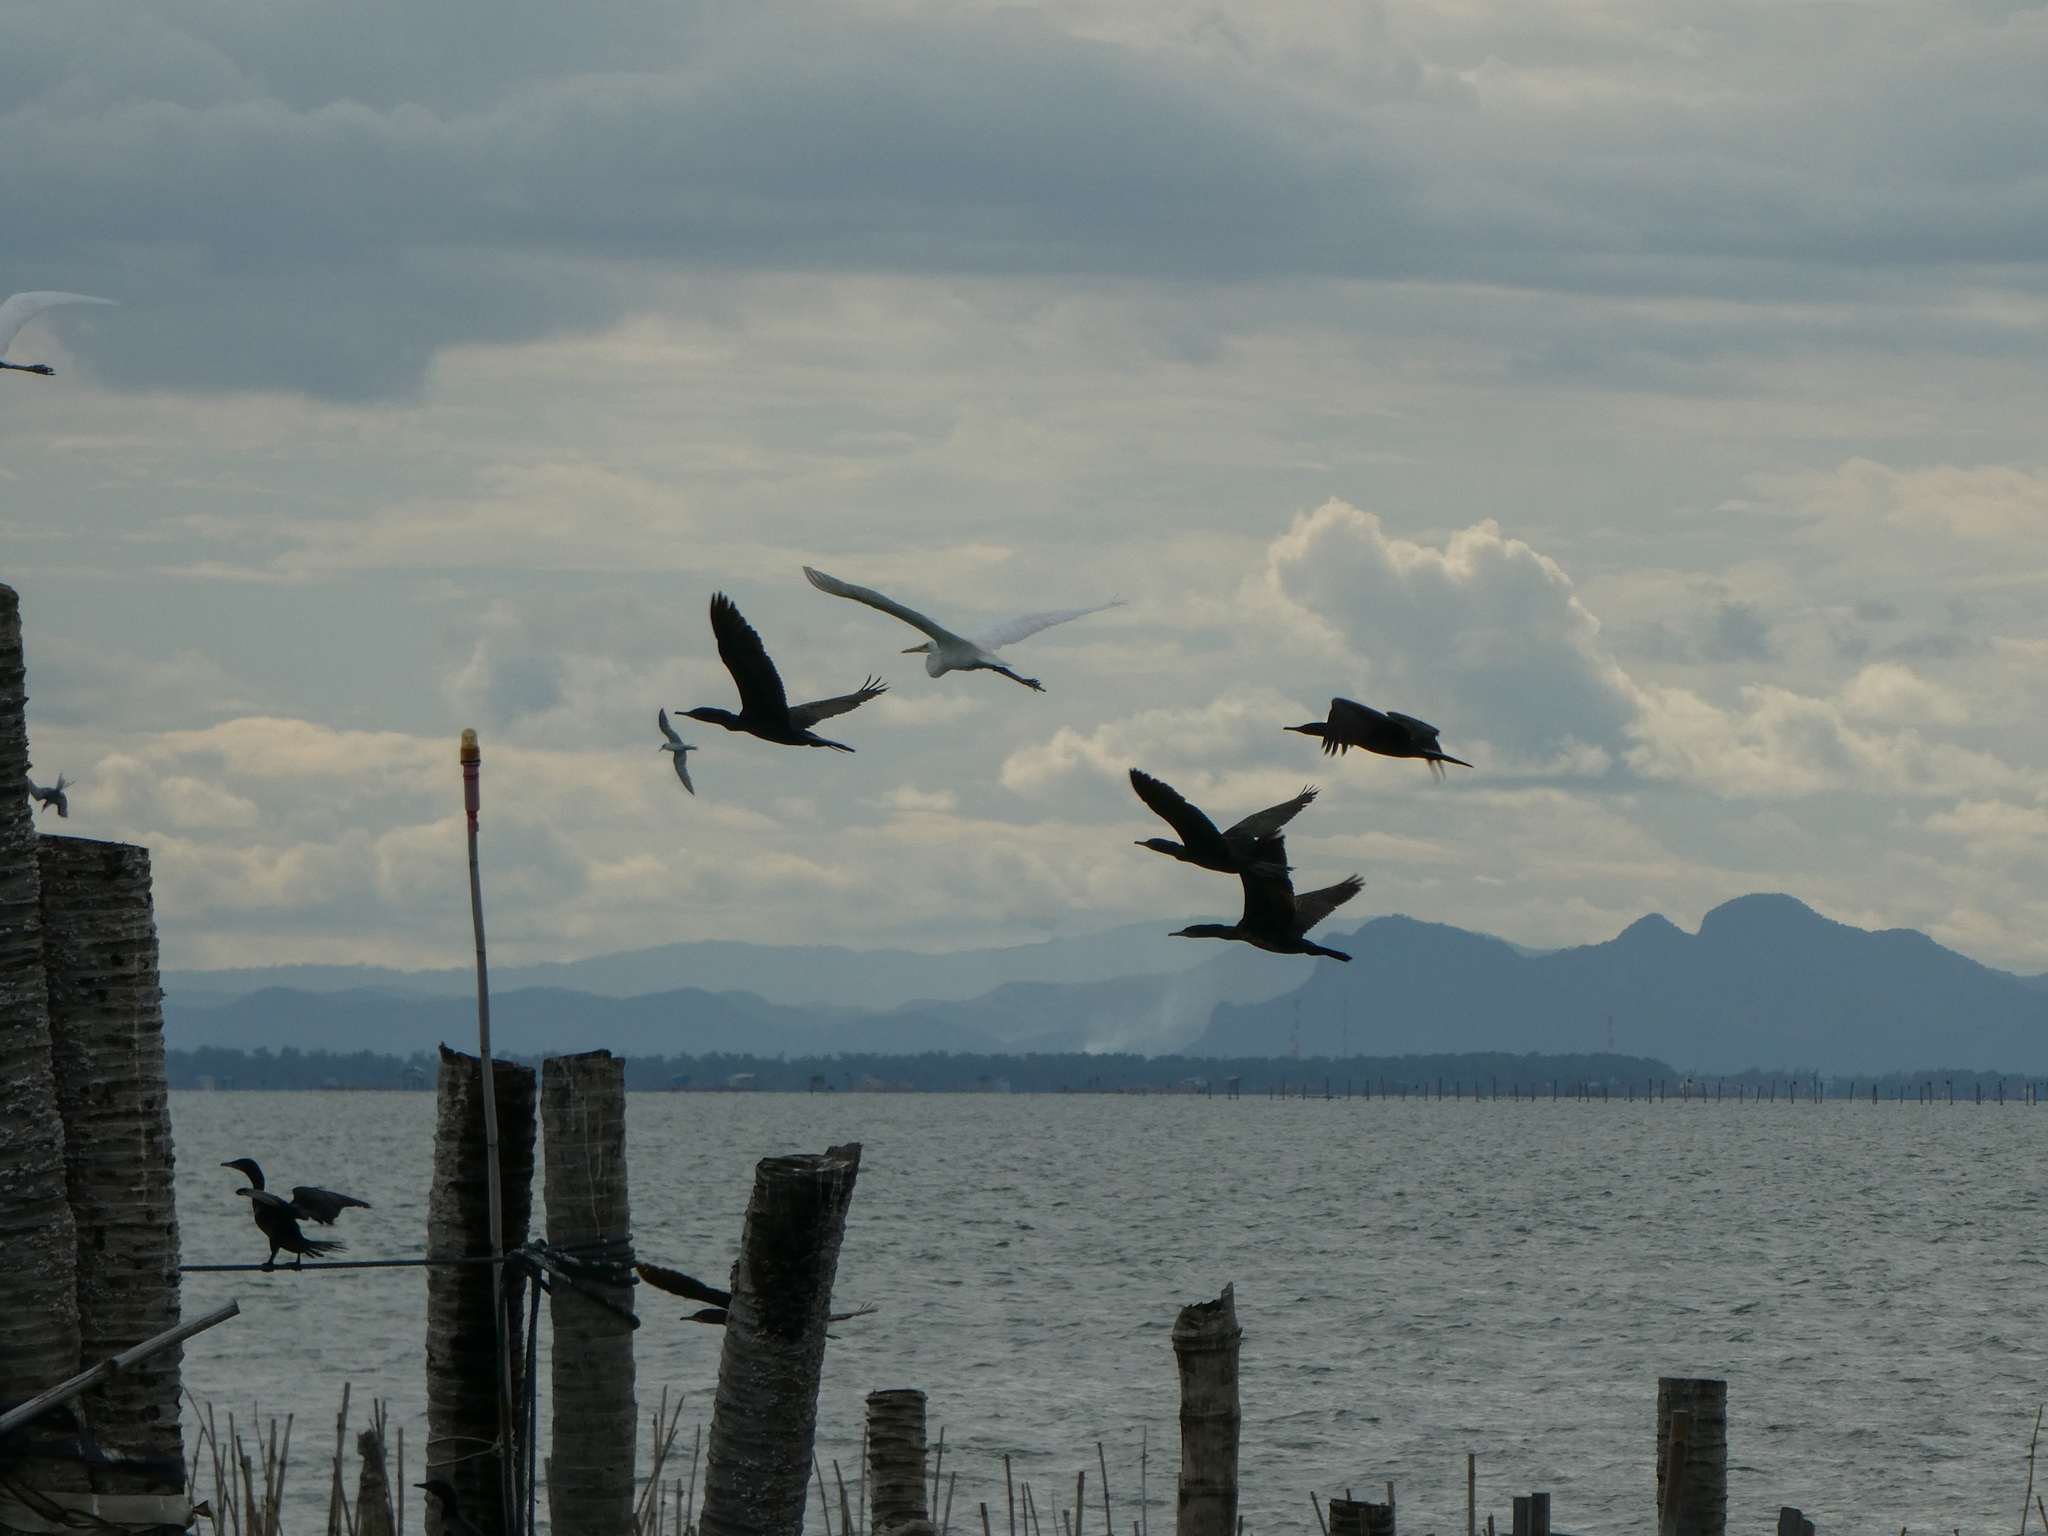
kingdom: Animalia
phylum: Chordata
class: Aves
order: Pelecaniformes
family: Ardeidae
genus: Ardea
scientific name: Ardea alba
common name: Great egret
